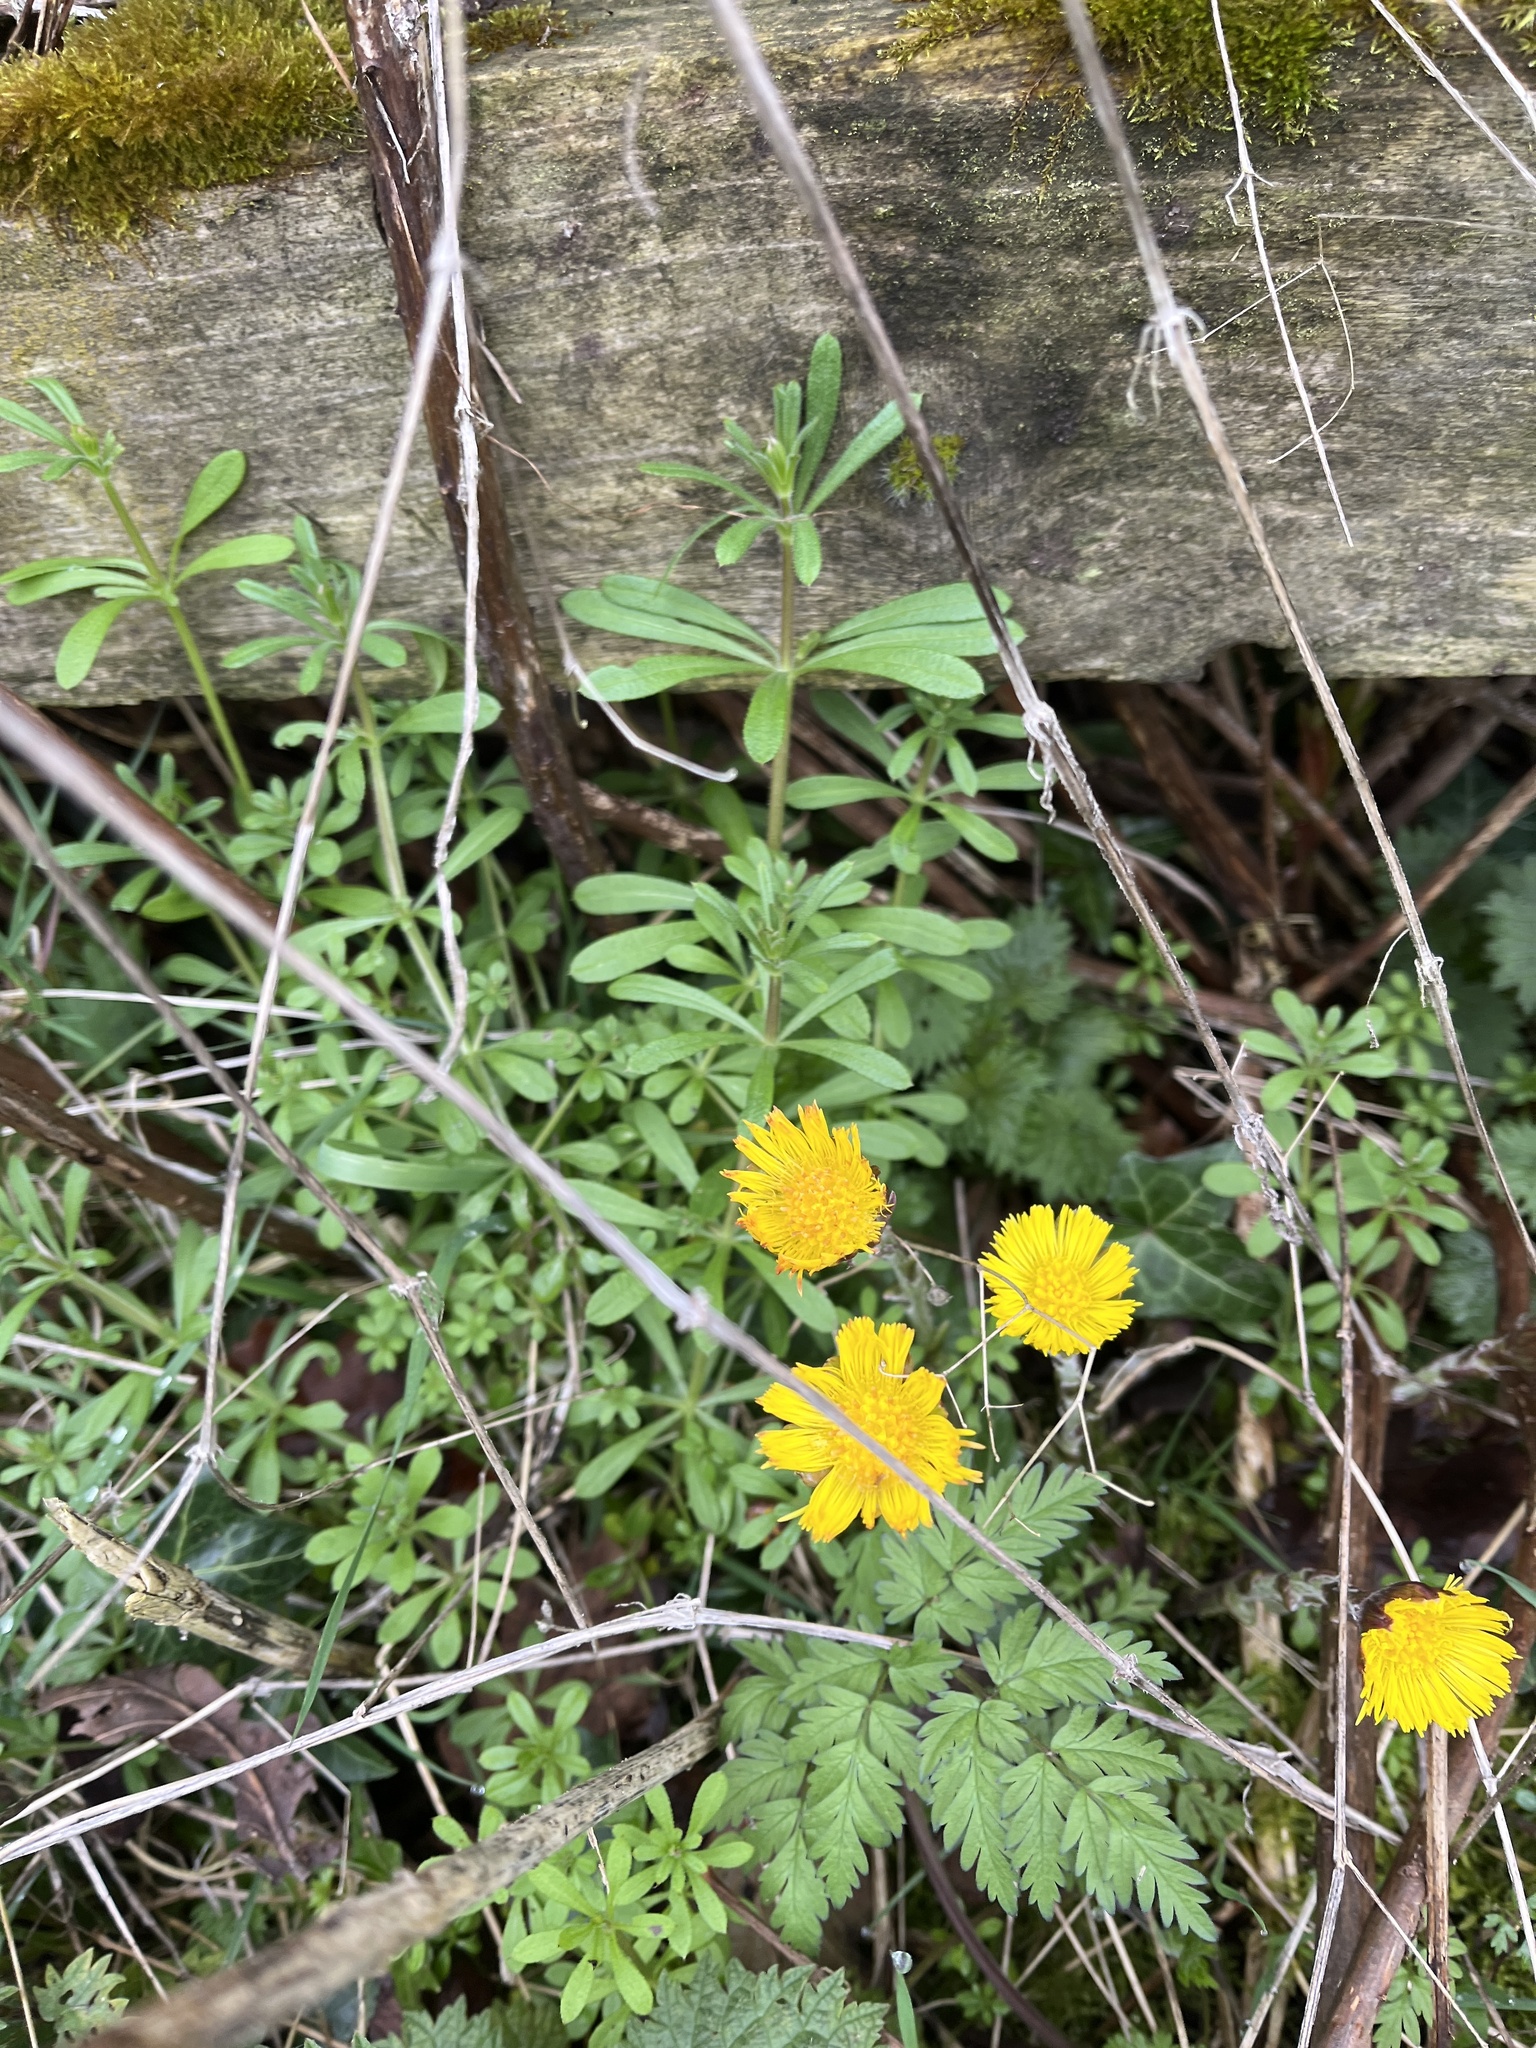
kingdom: Plantae
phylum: Tracheophyta
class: Magnoliopsida
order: Asterales
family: Asteraceae
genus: Tussilago
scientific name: Tussilago farfara
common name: Coltsfoot
